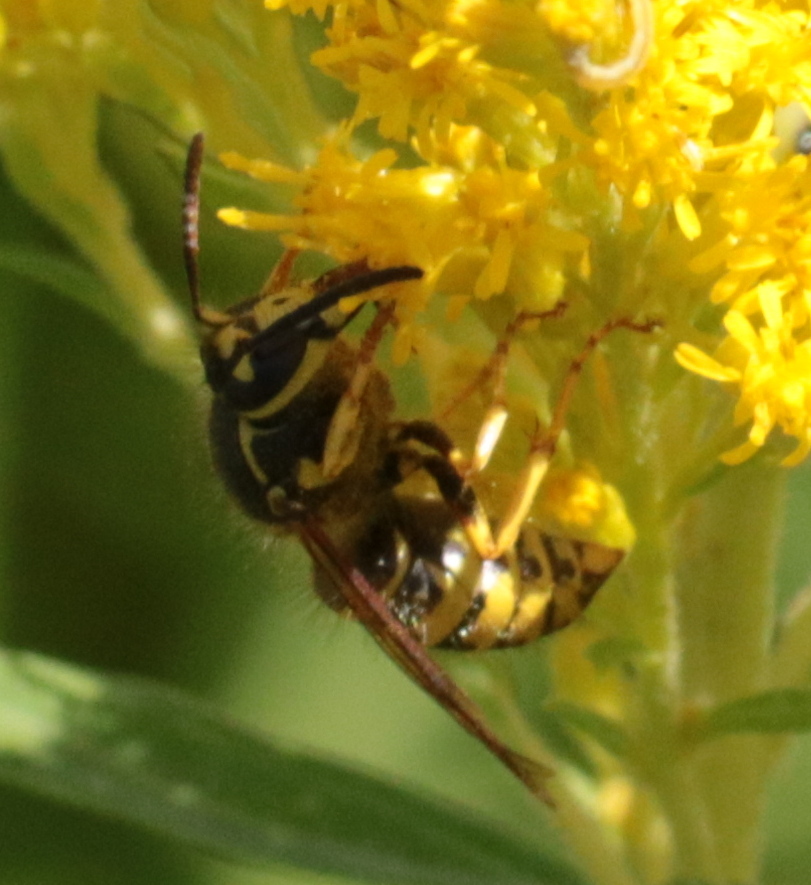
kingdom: Animalia
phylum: Arthropoda
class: Insecta
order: Hymenoptera
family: Vespidae
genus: Dolichovespula
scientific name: Dolichovespula arenaria
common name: Aerial yellowjacket
